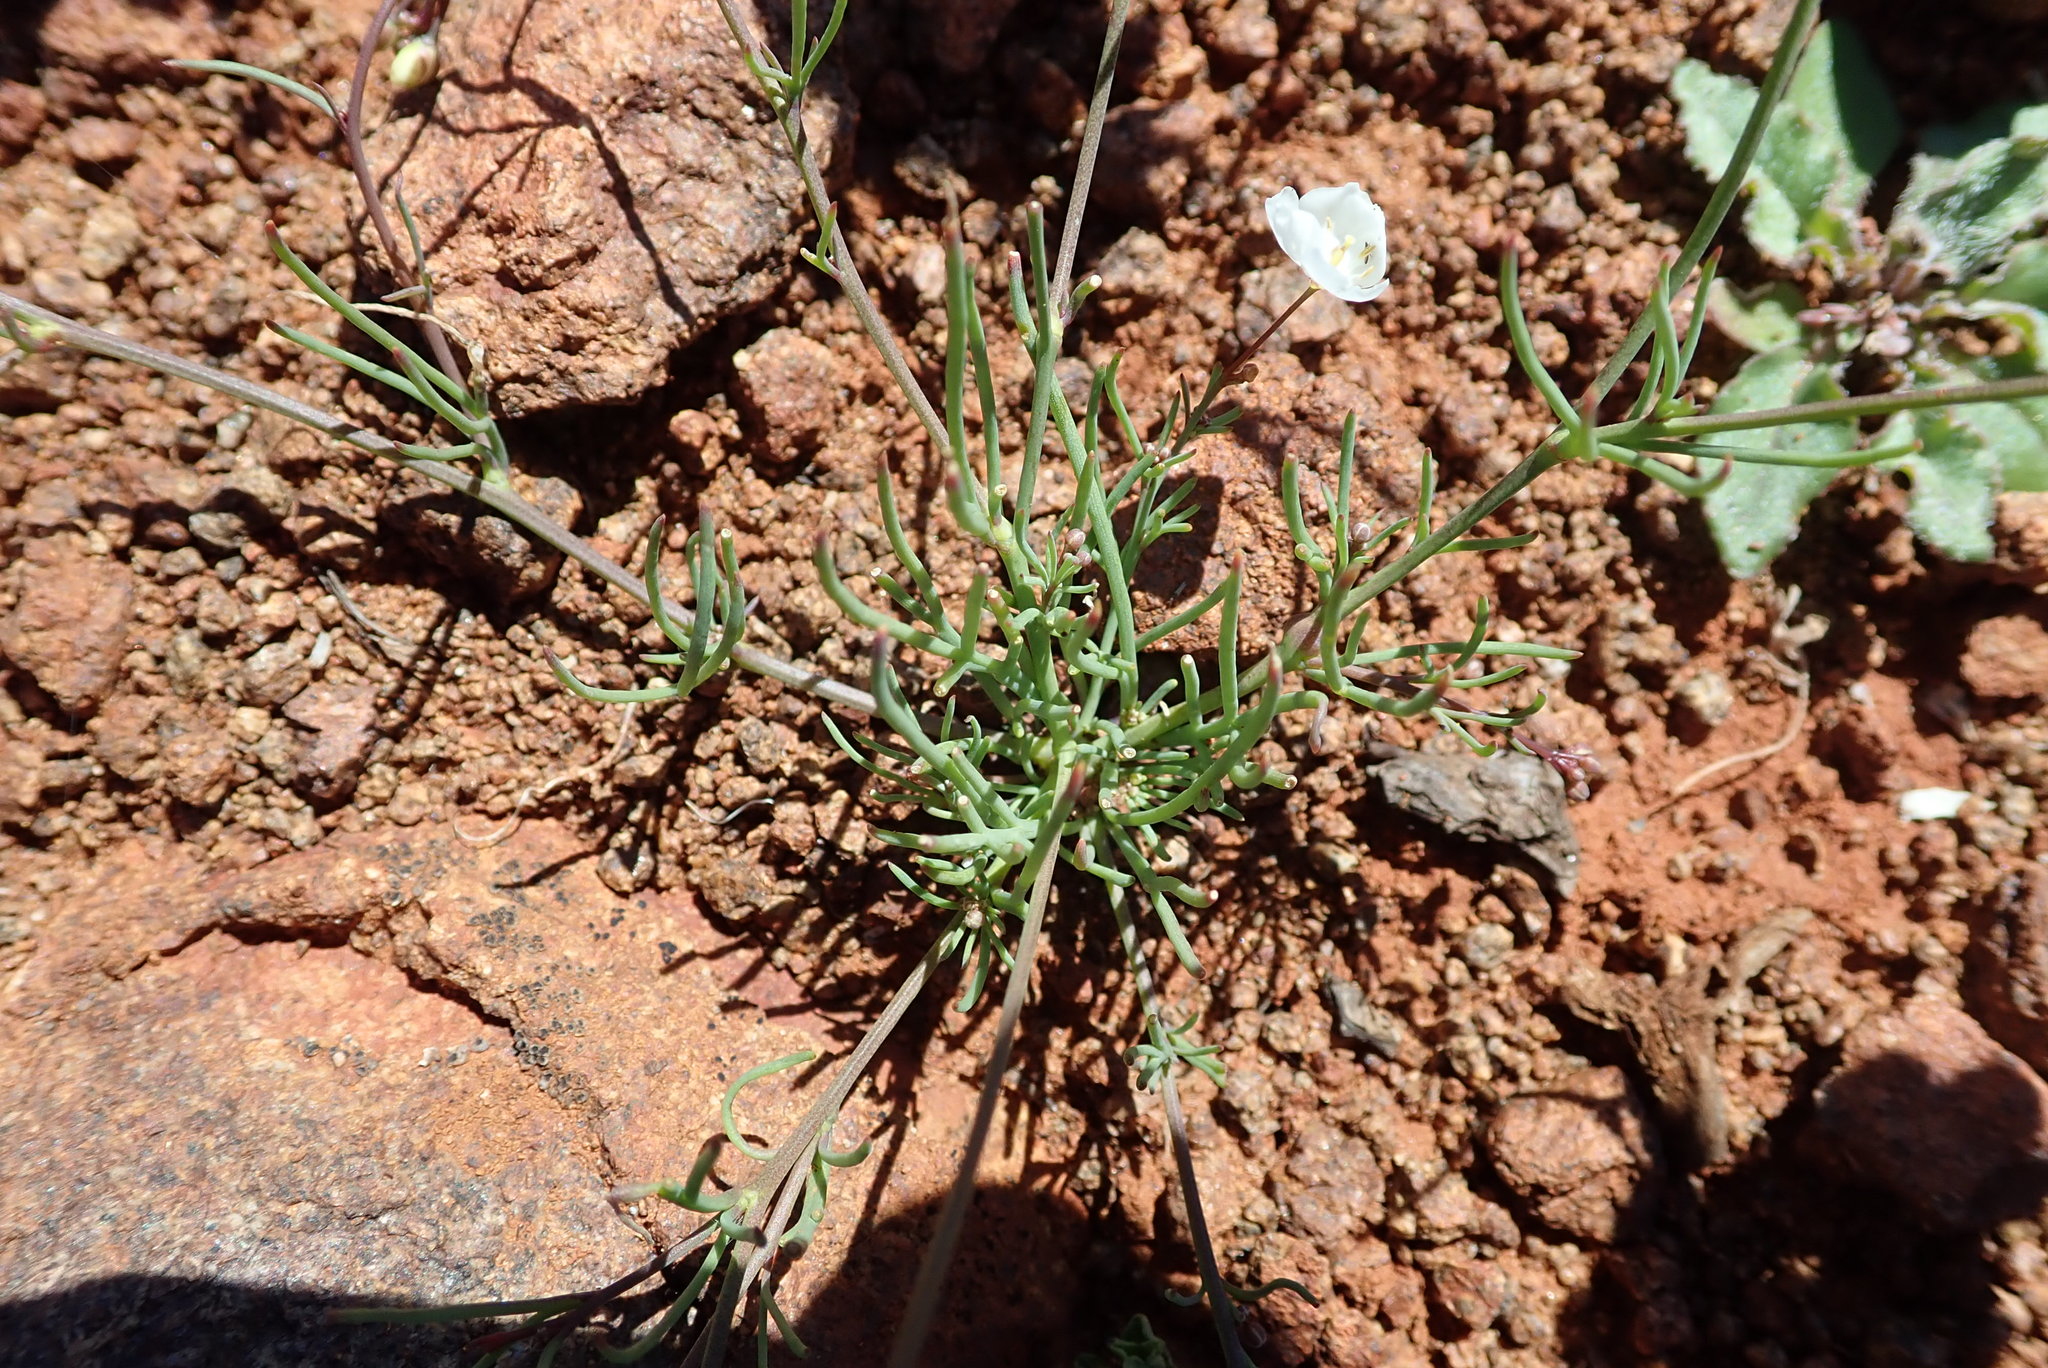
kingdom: Plantae
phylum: Tracheophyta
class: Magnoliopsida
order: Brassicales
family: Brassicaceae
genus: Heliophila
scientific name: Heliophila seselifolia
